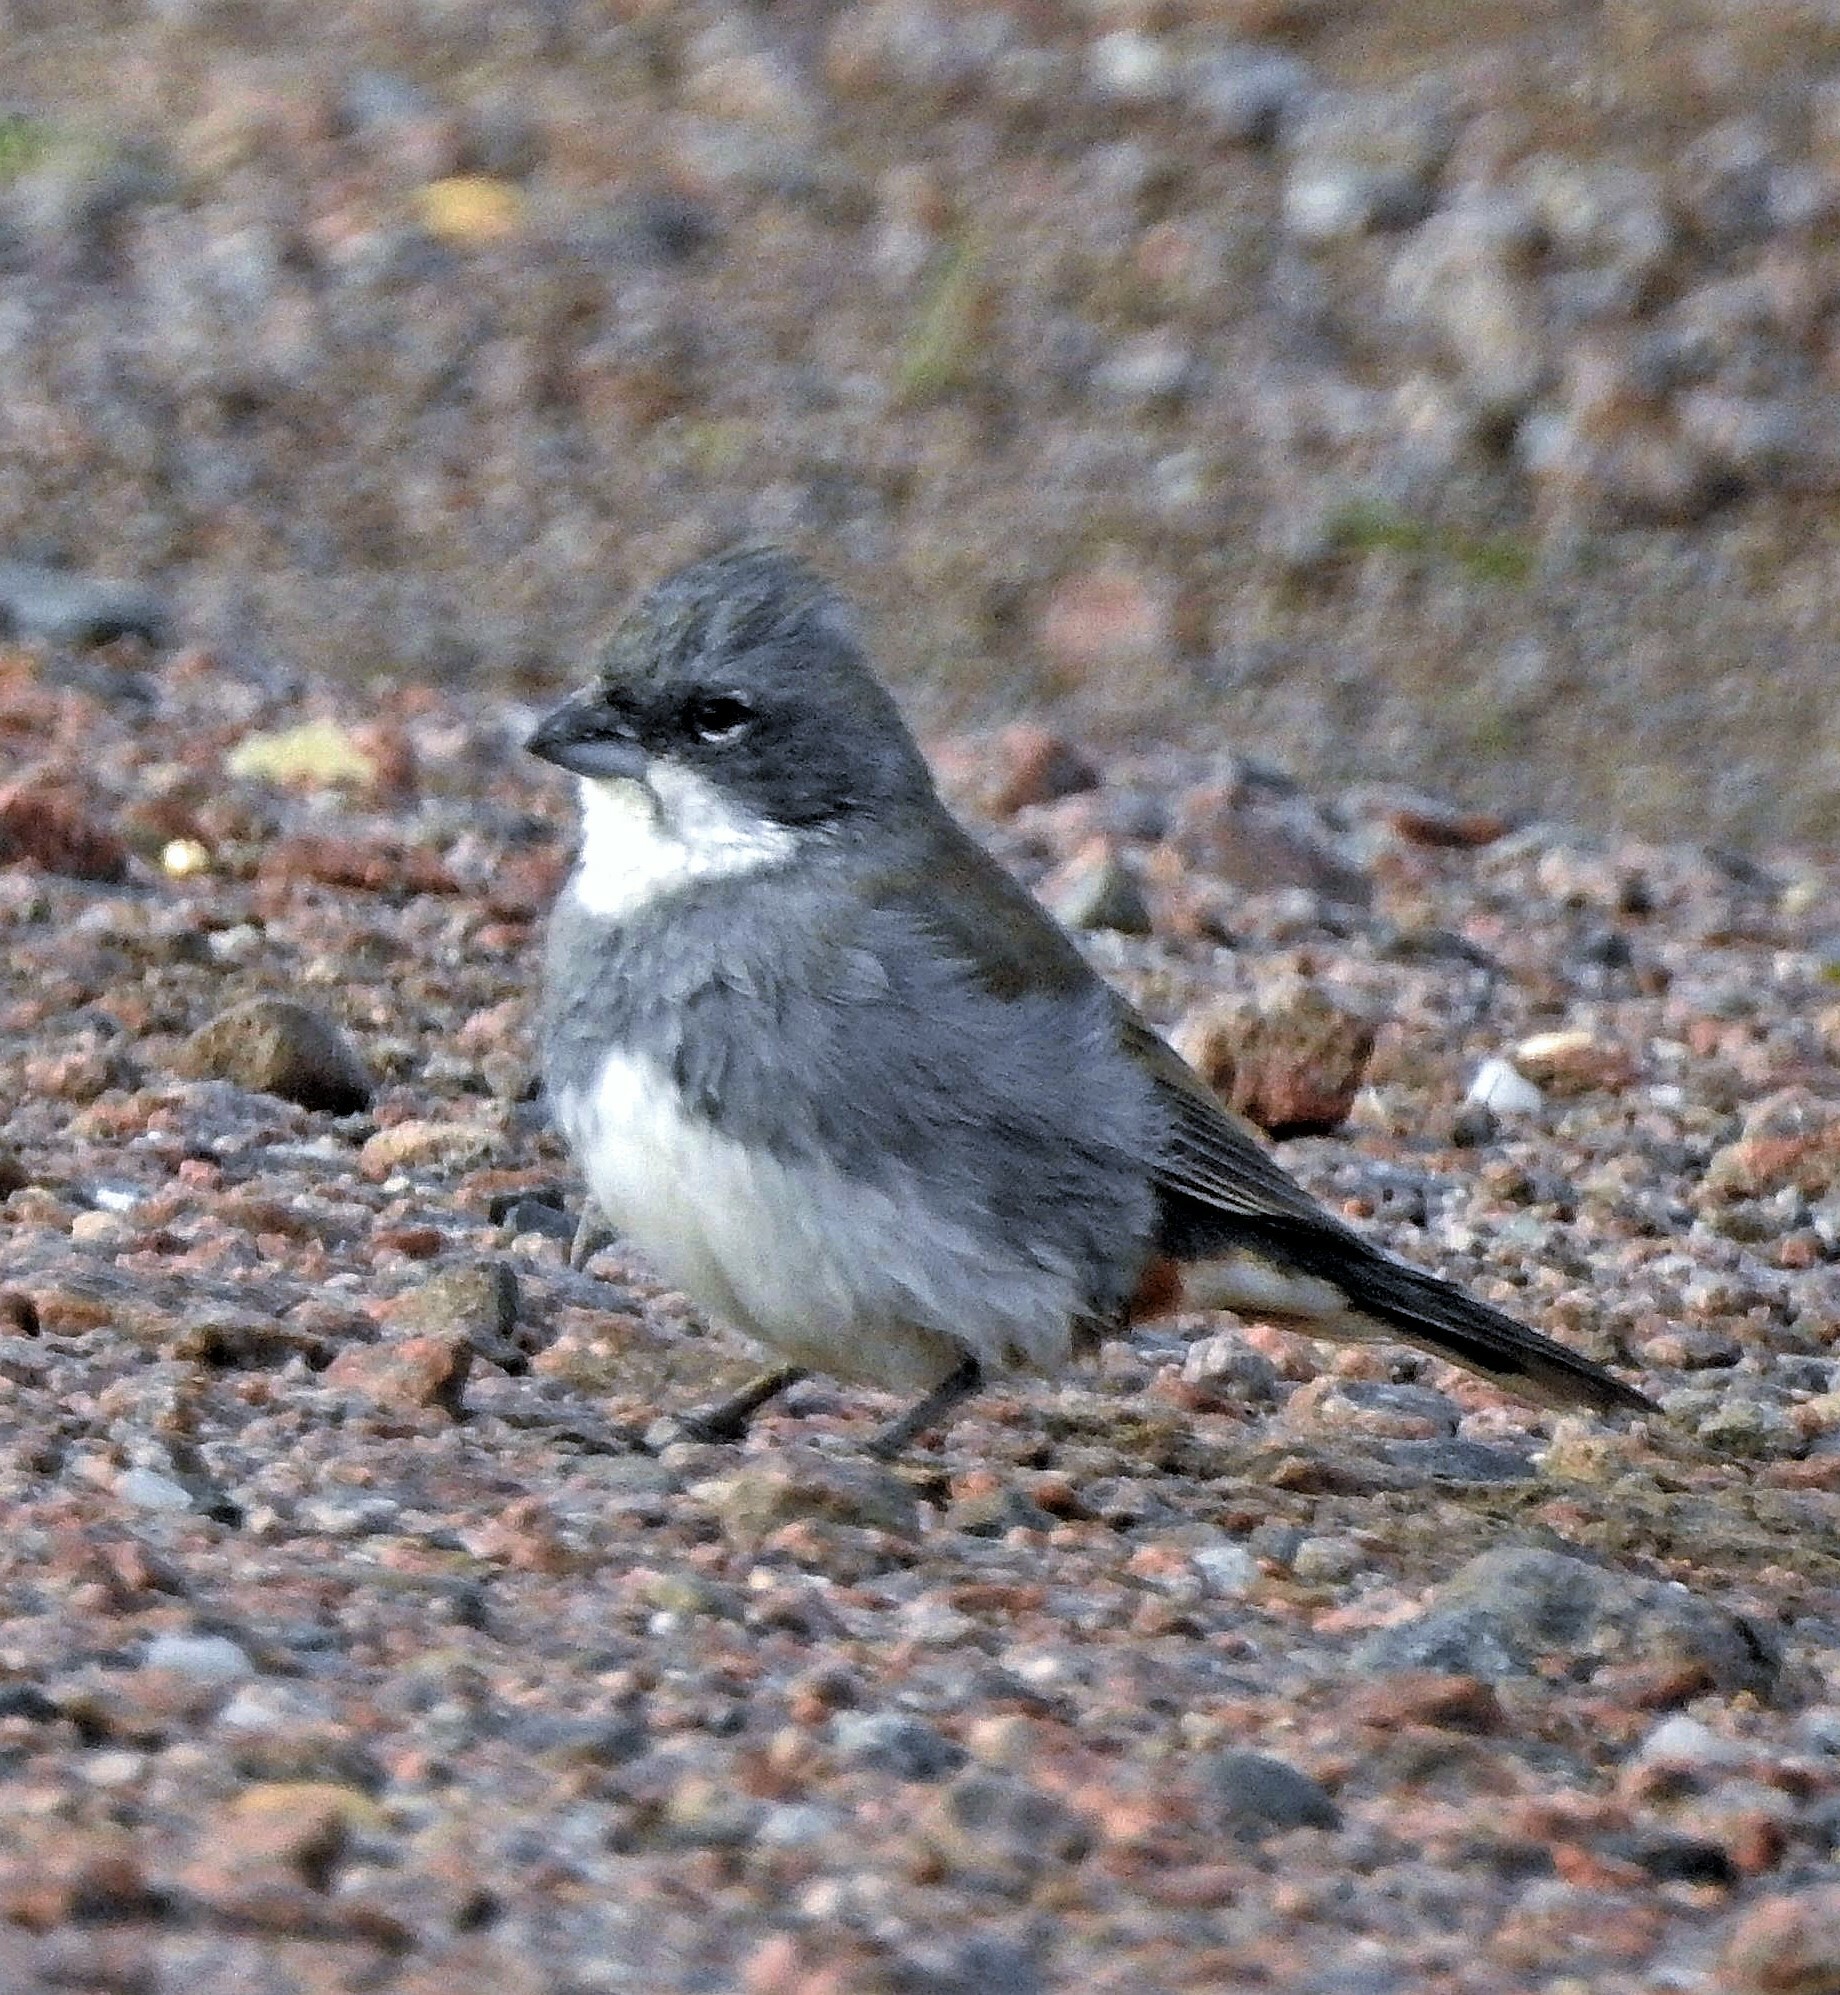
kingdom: Animalia
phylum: Chordata
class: Aves
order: Passeriformes
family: Thraupidae
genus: Diuca
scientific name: Diuca diuca
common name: Common diuca finch
